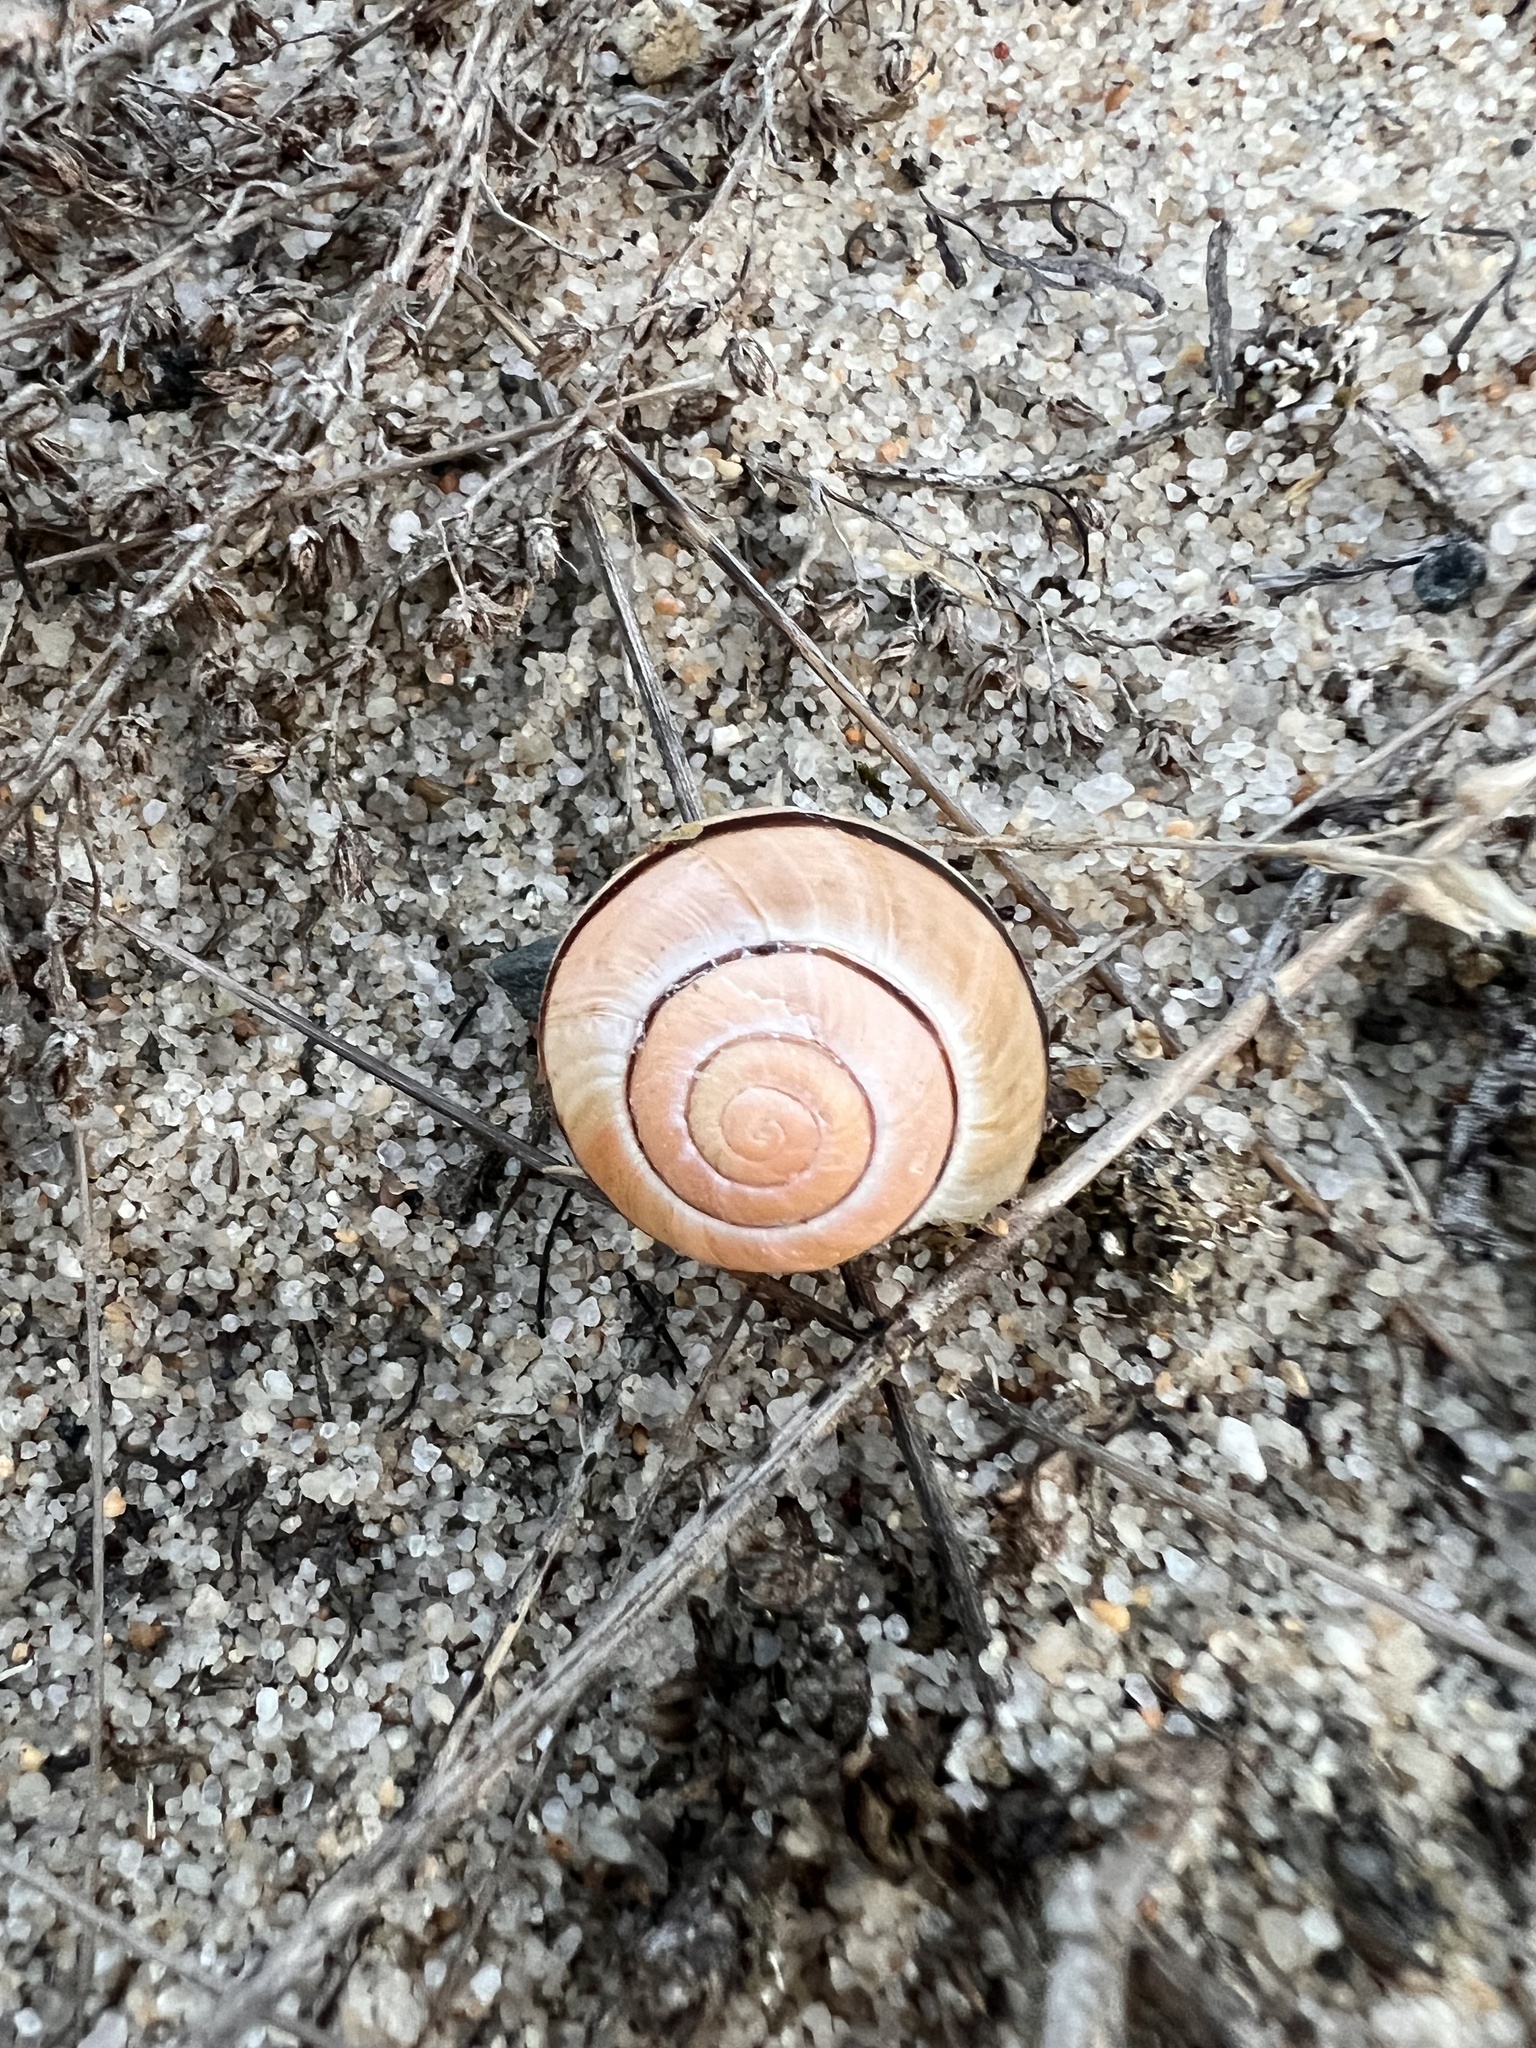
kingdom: Animalia
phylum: Mollusca
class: Gastropoda
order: Stylommatophora
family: Helicidae
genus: Cepaea
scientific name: Cepaea nemoralis
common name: Grovesnail
